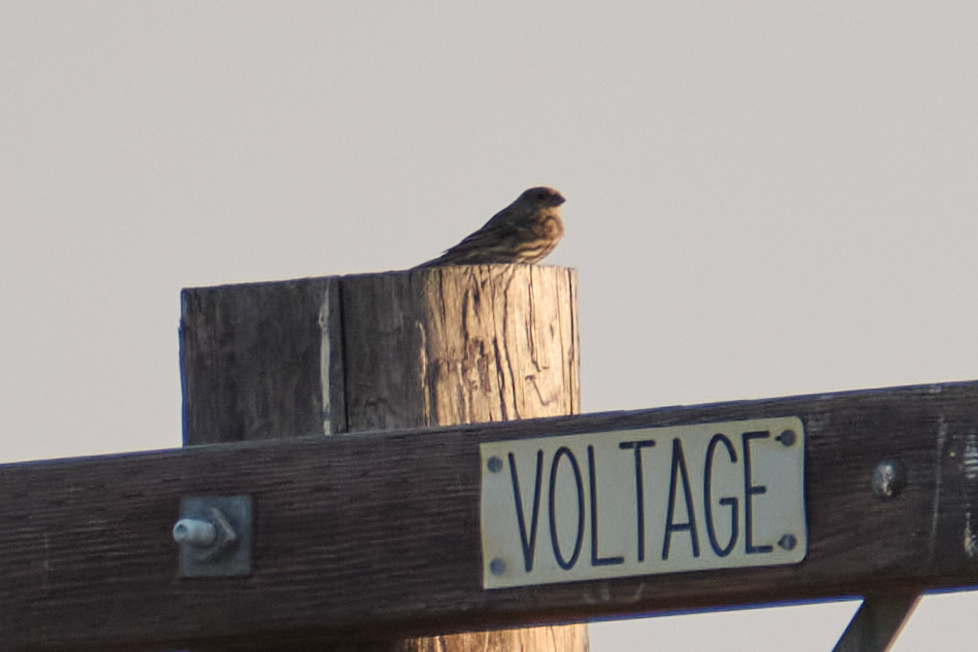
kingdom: Animalia
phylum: Chordata
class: Aves
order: Passeriformes
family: Fringillidae
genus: Haemorhous
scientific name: Haemorhous mexicanus
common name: House finch
